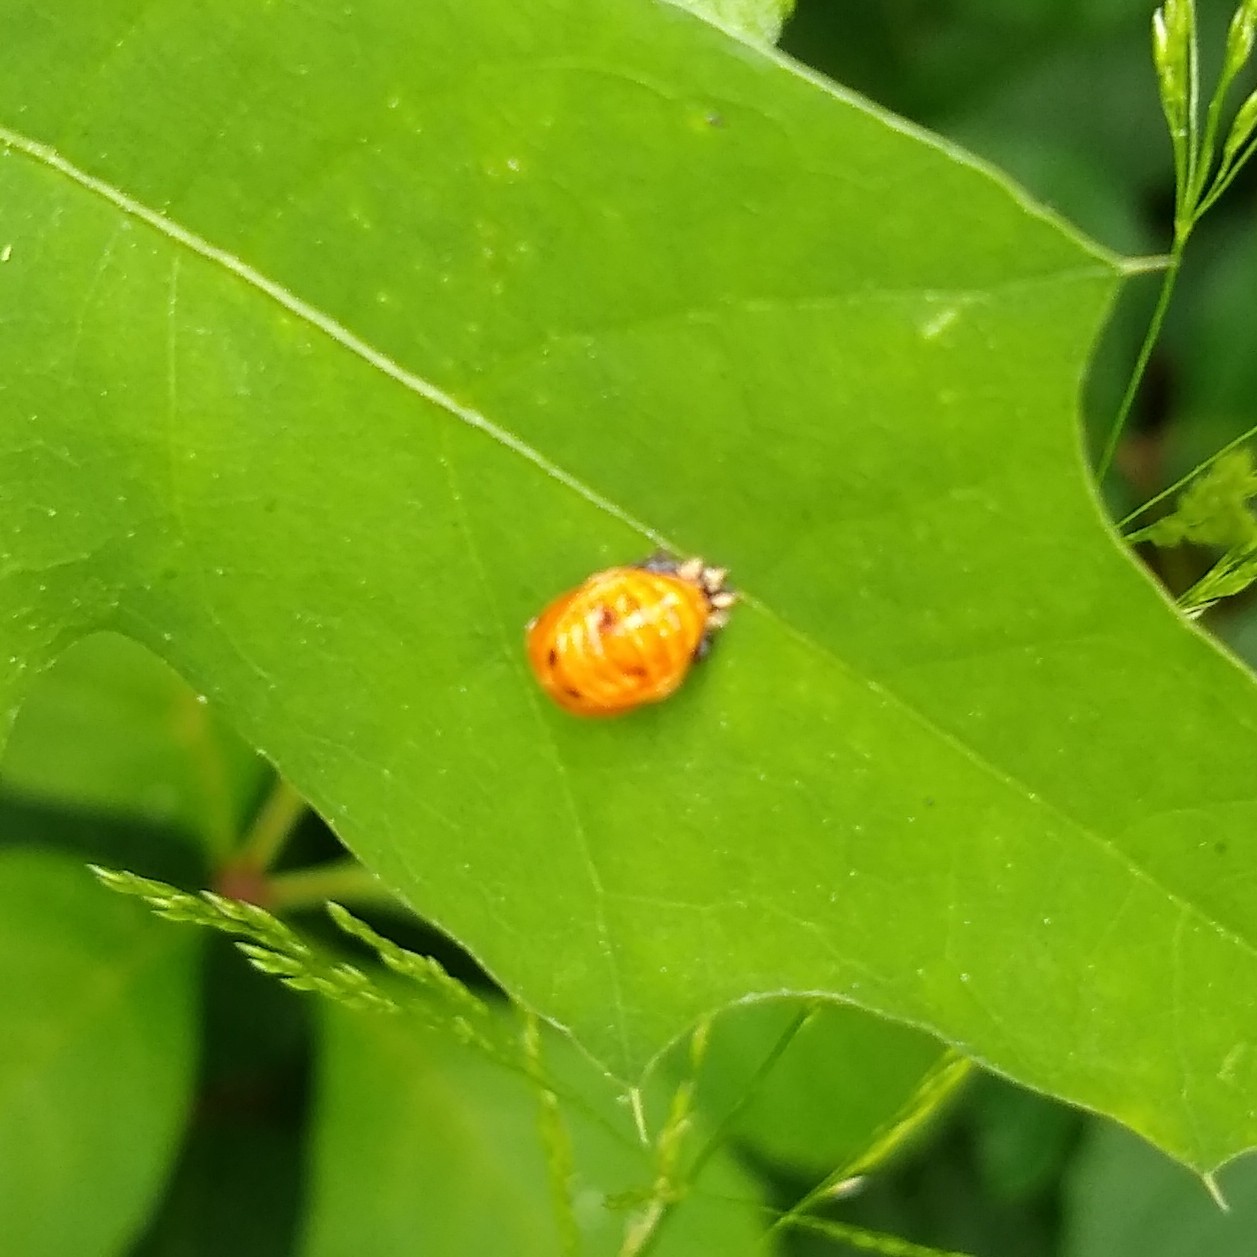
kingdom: Animalia
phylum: Arthropoda
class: Insecta
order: Coleoptera
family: Coccinellidae
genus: Harmonia
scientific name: Harmonia axyridis
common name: Harlequin ladybird
